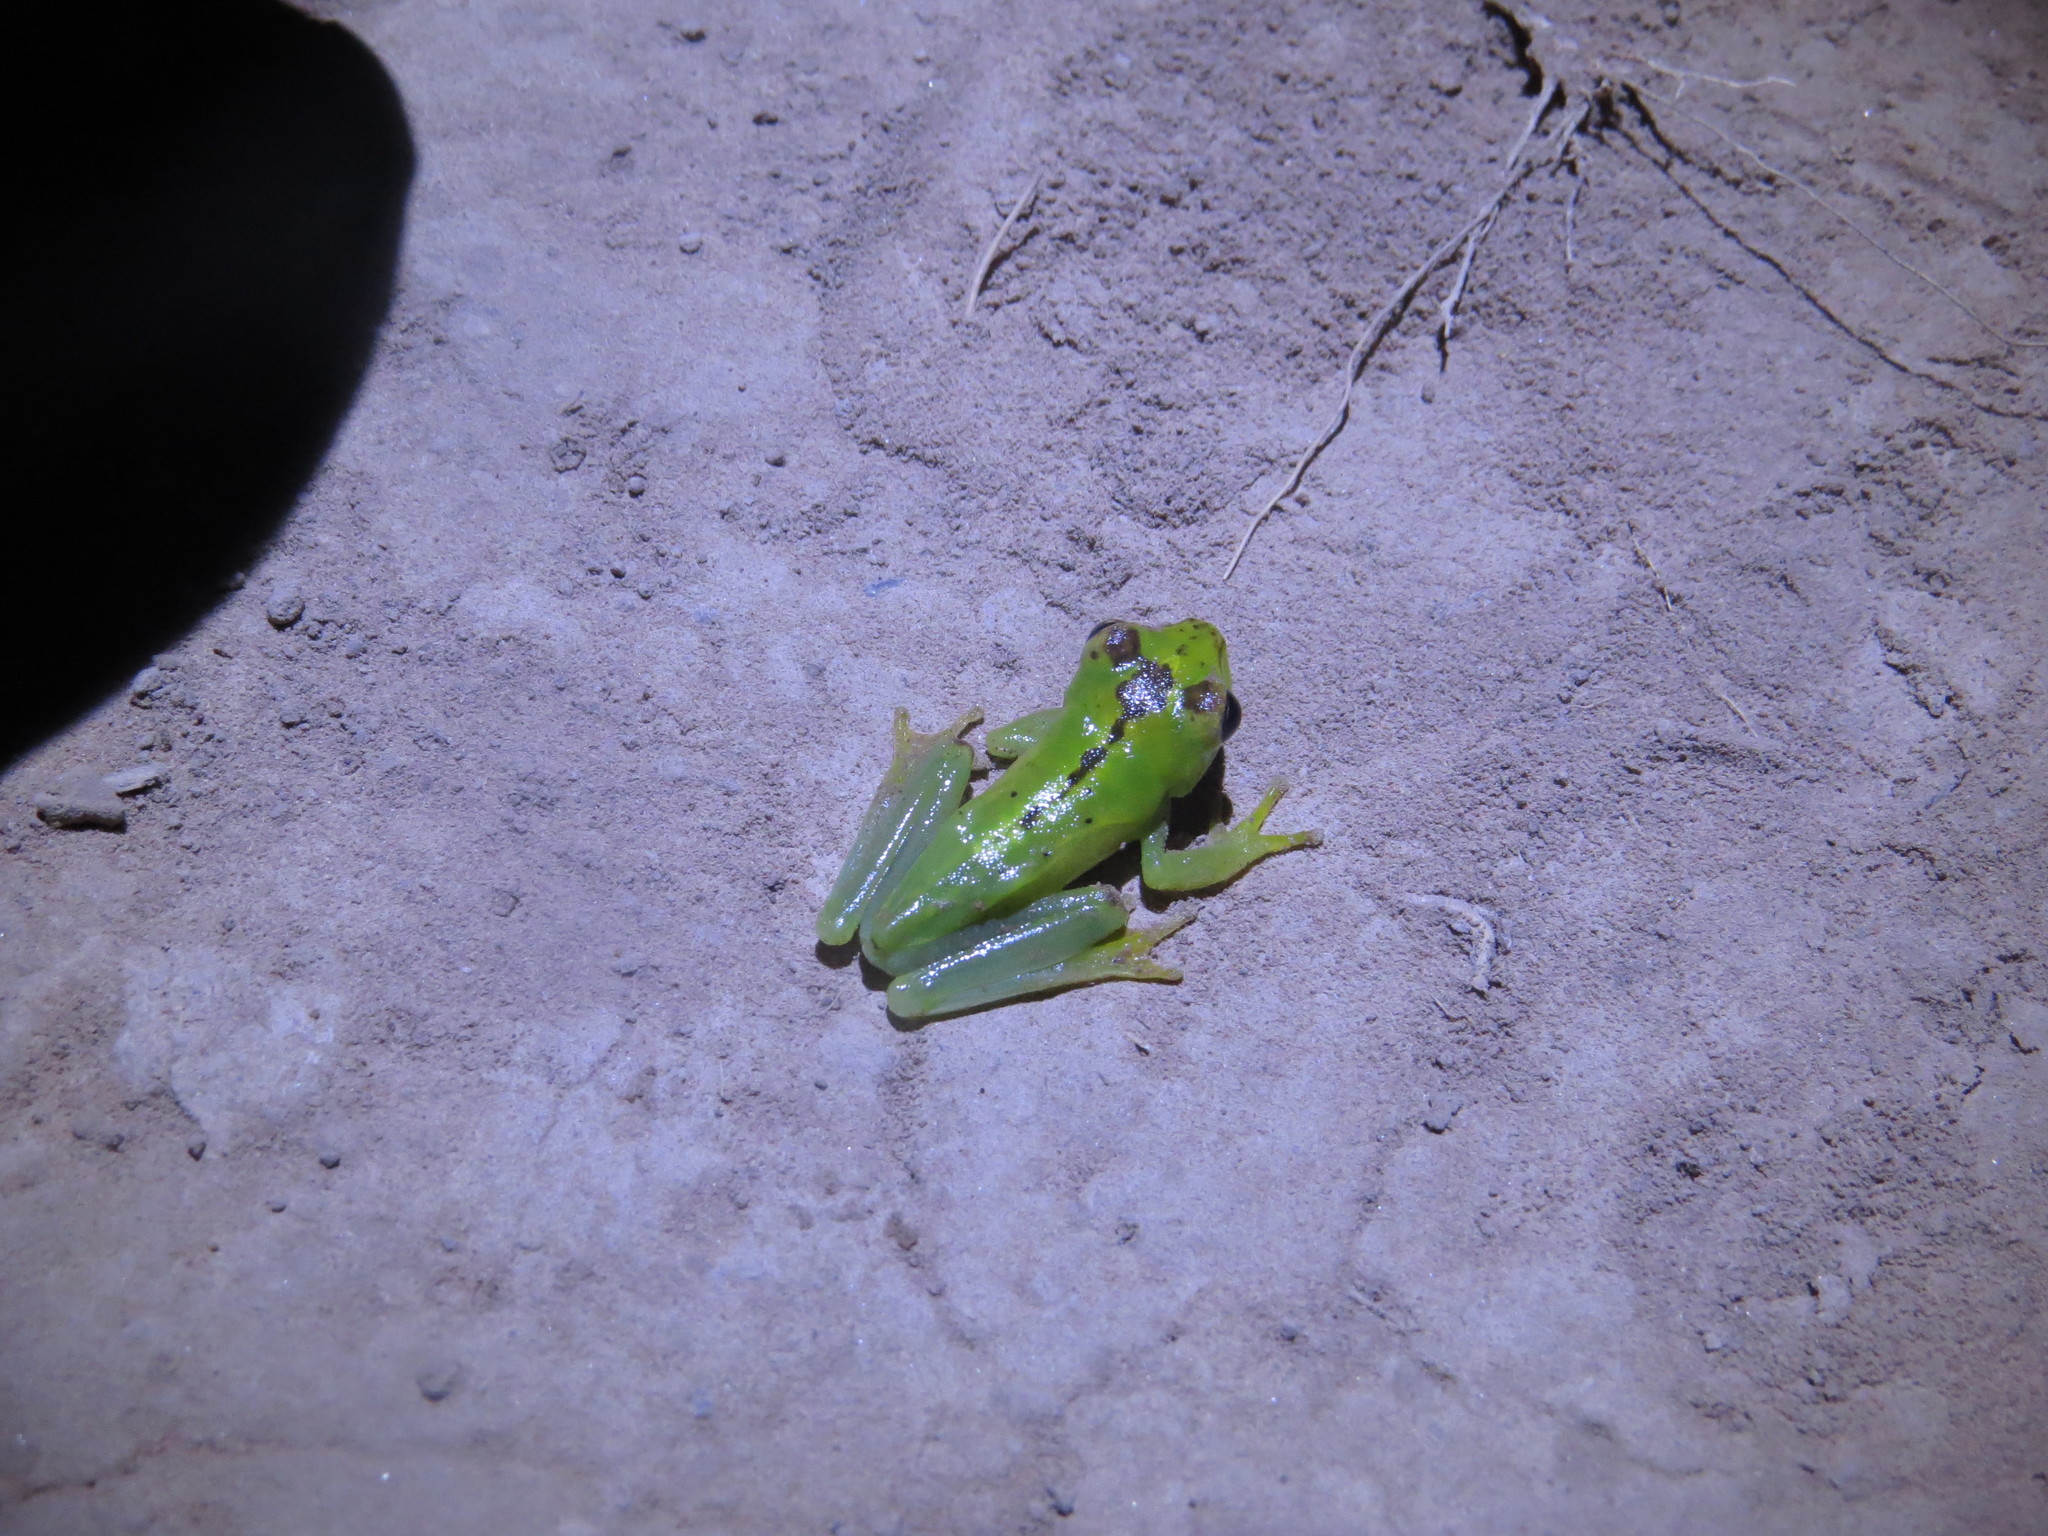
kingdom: Animalia
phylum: Chordata
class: Amphibia
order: Anura
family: Hylidae
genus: Boana
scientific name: Boana raniceps
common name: Chaco treefrog
